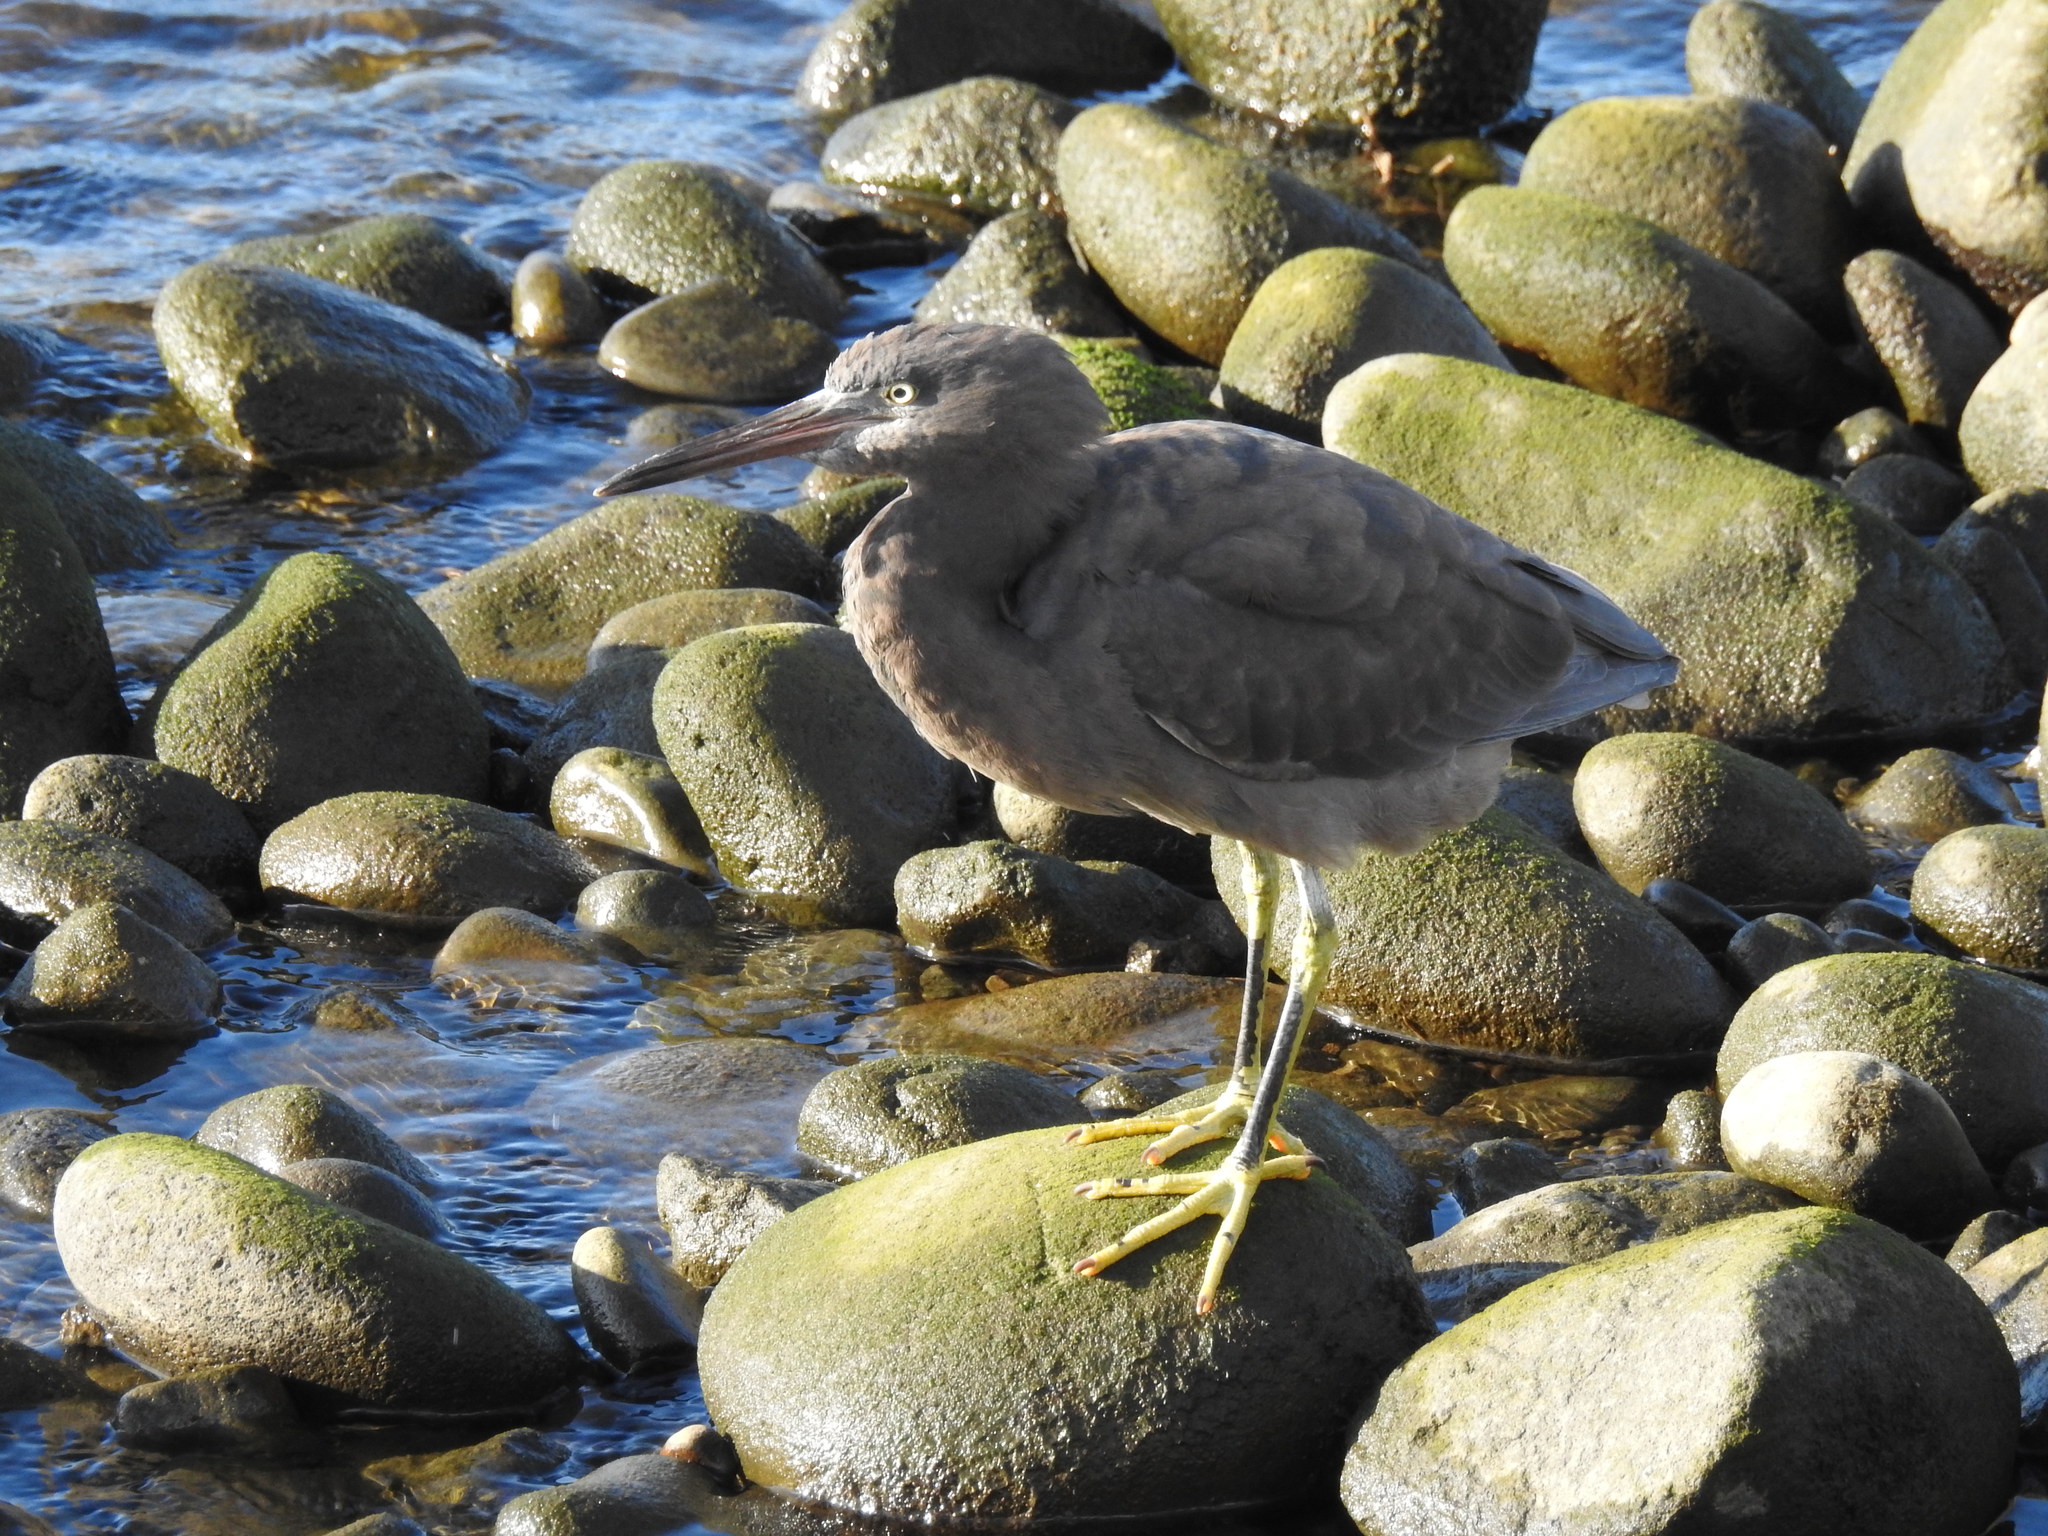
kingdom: Animalia
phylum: Chordata
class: Aves
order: Pelecaniformes
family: Ardeidae
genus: Egretta
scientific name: Egretta sacra
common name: Pacific reef heron
